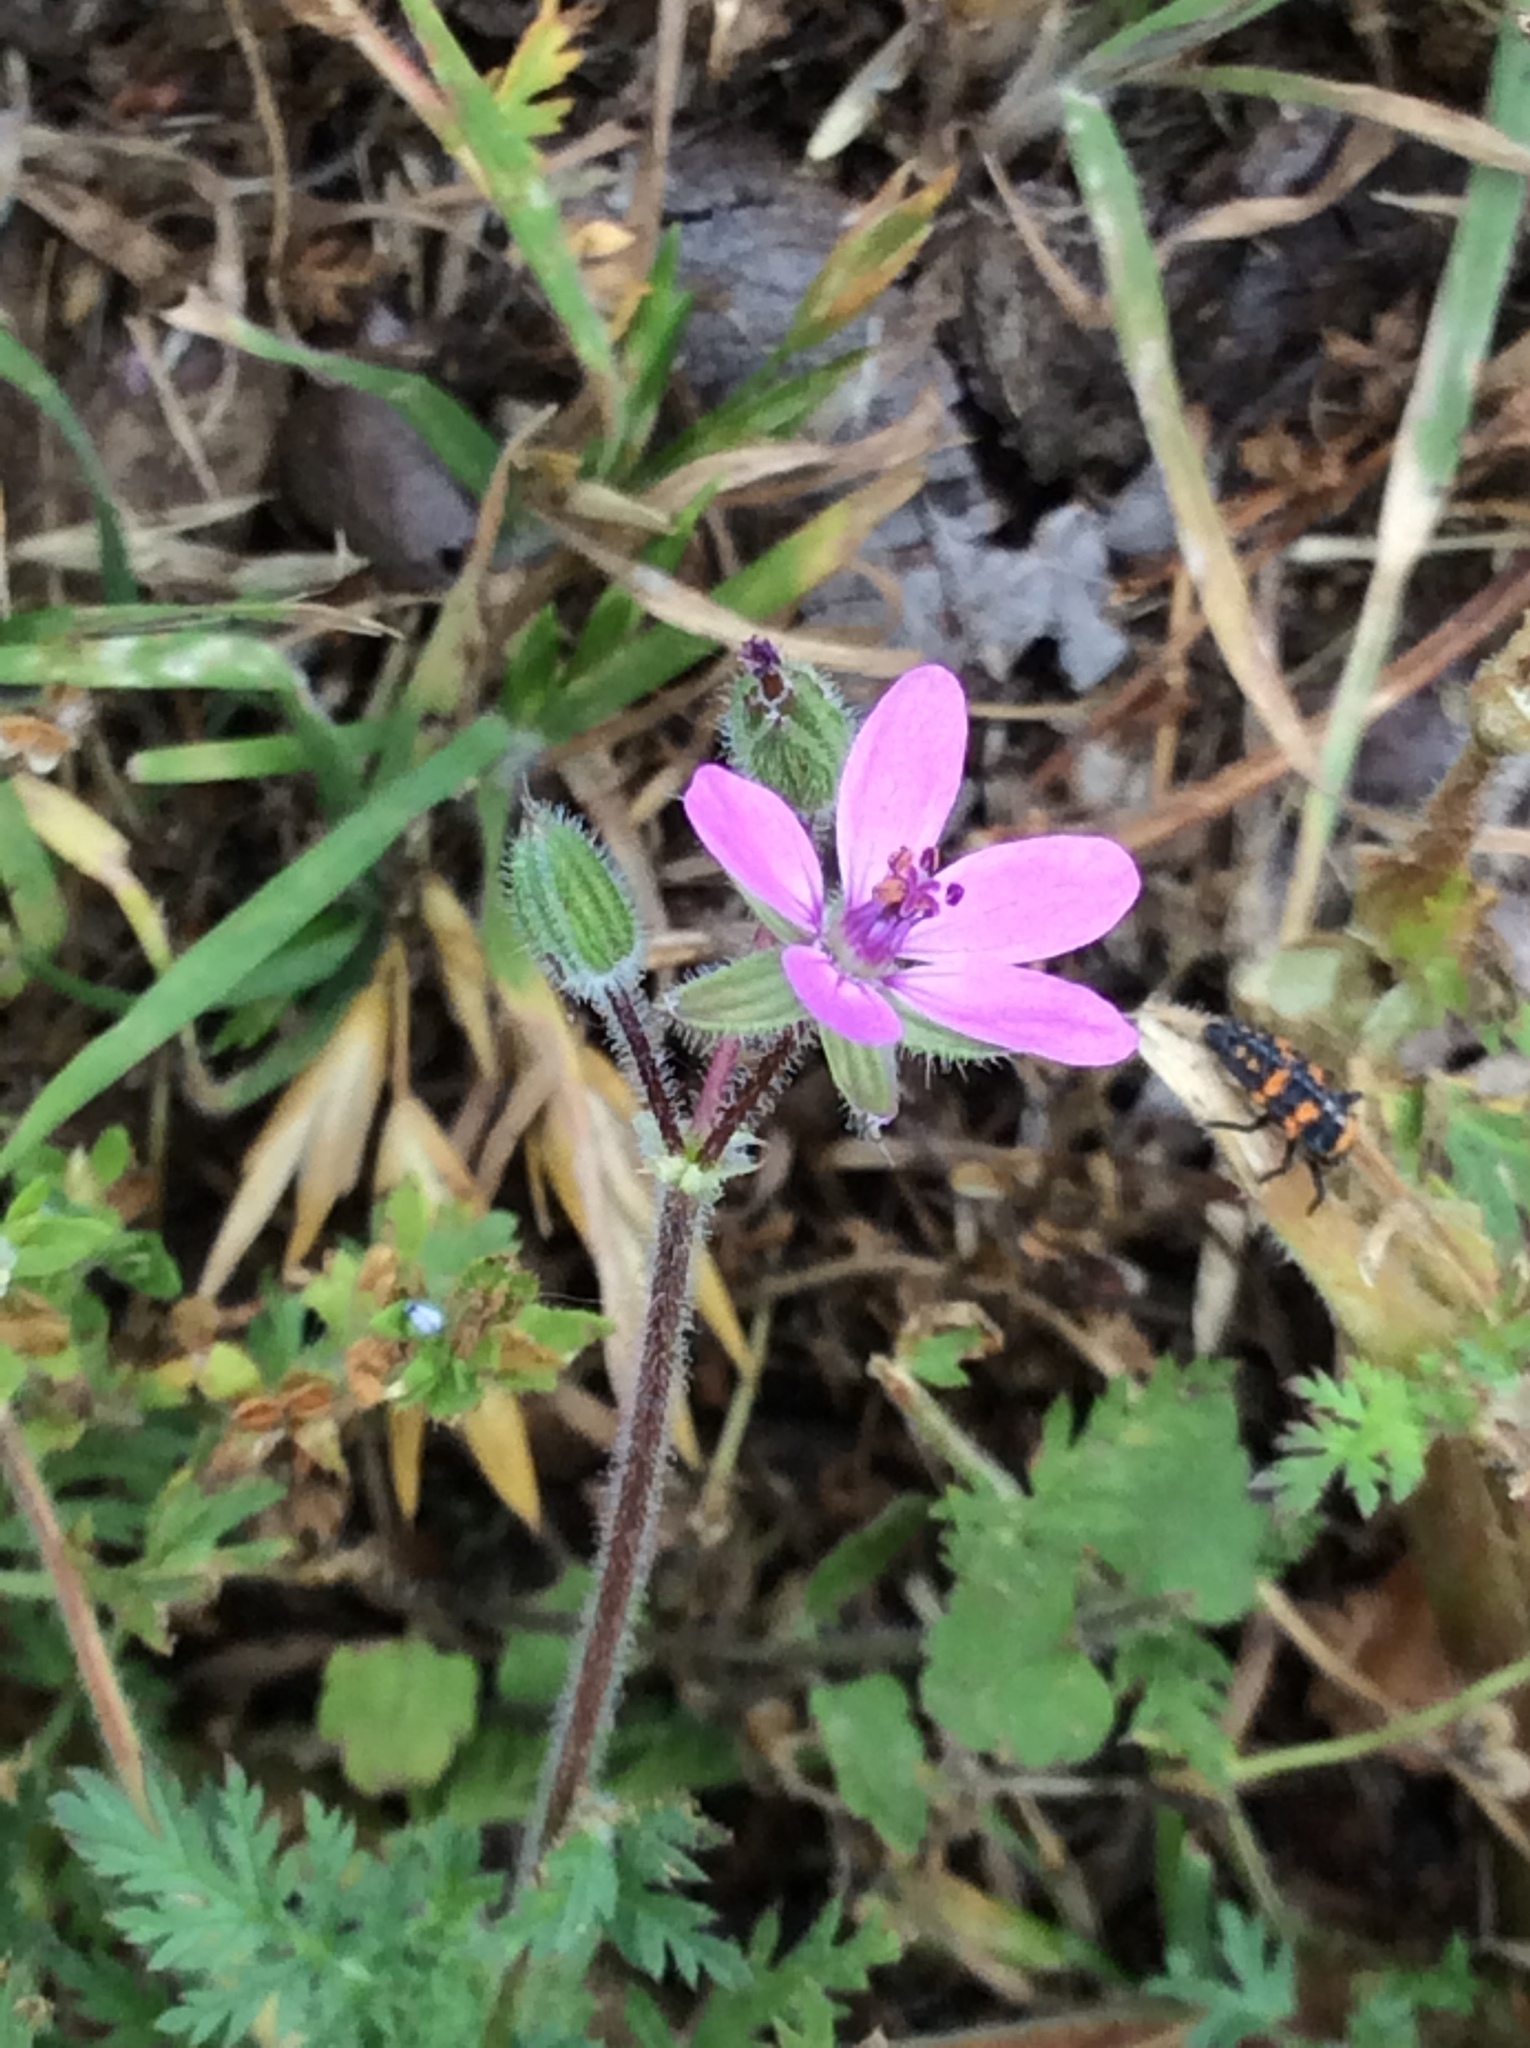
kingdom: Plantae
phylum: Tracheophyta
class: Magnoliopsida
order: Geraniales
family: Geraniaceae
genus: Erodium
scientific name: Erodium cicutarium
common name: Common stork's-bill
